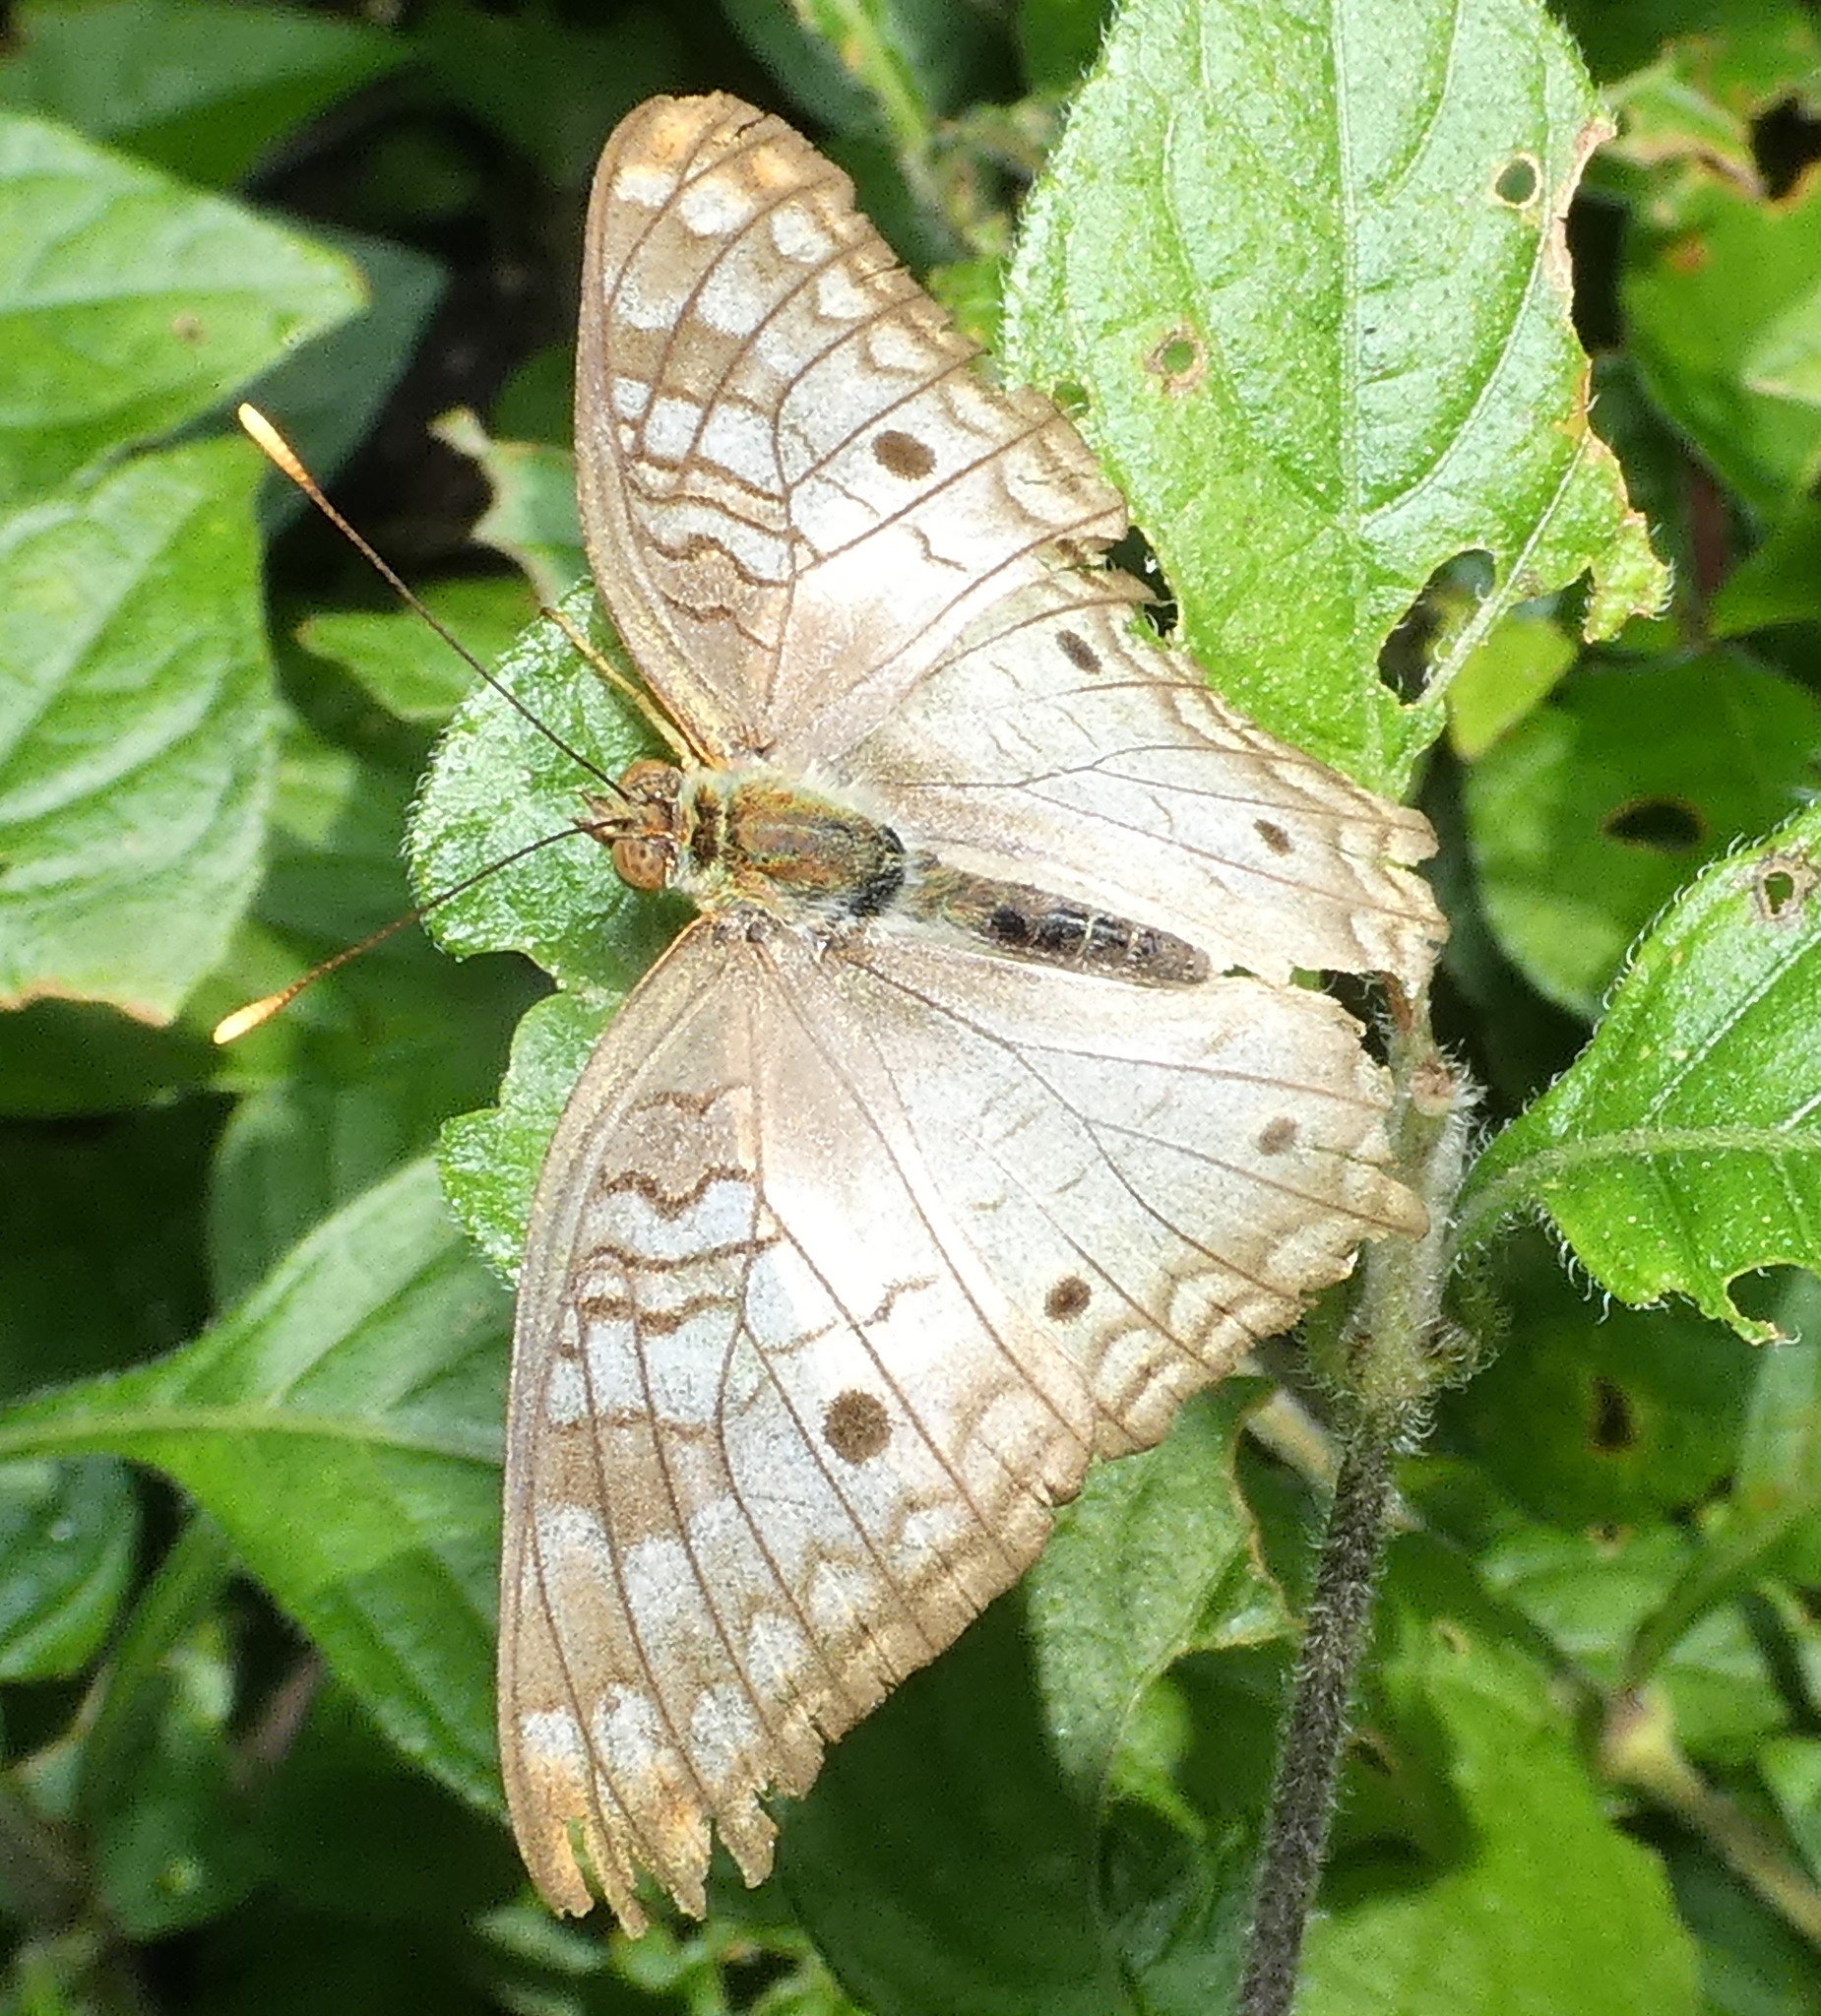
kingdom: Animalia
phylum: Arthropoda
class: Insecta
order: Lepidoptera
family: Nymphalidae
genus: Anartia
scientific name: Anartia jatrophae
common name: White peacock
